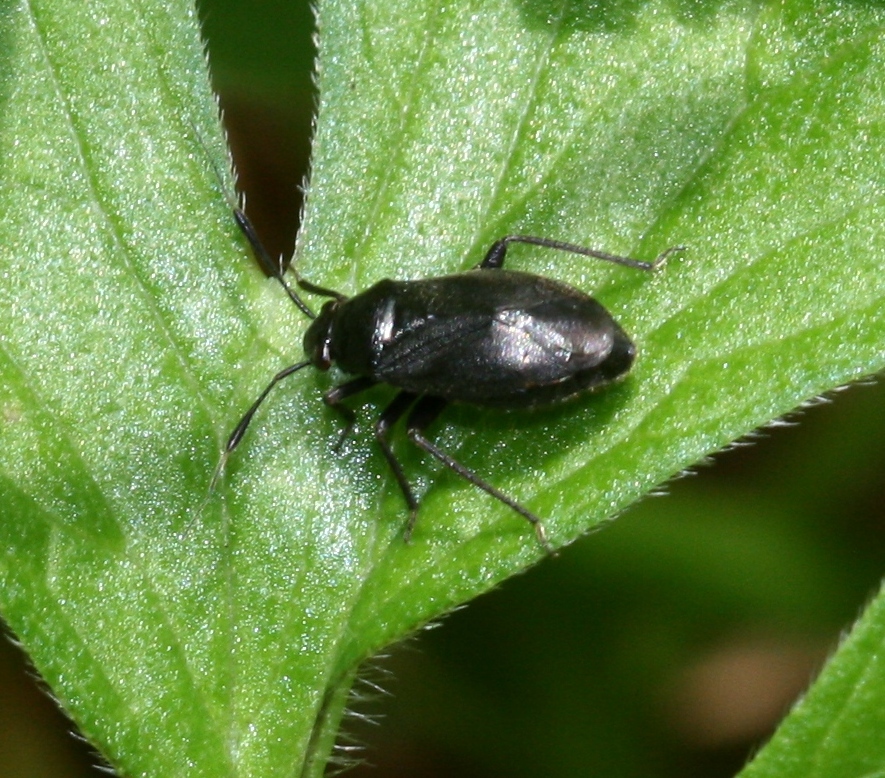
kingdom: Animalia
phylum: Arthropoda
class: Insecta
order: Hemiptera
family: Miridae
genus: Capsus
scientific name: Capsus ater
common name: Black plant bug
